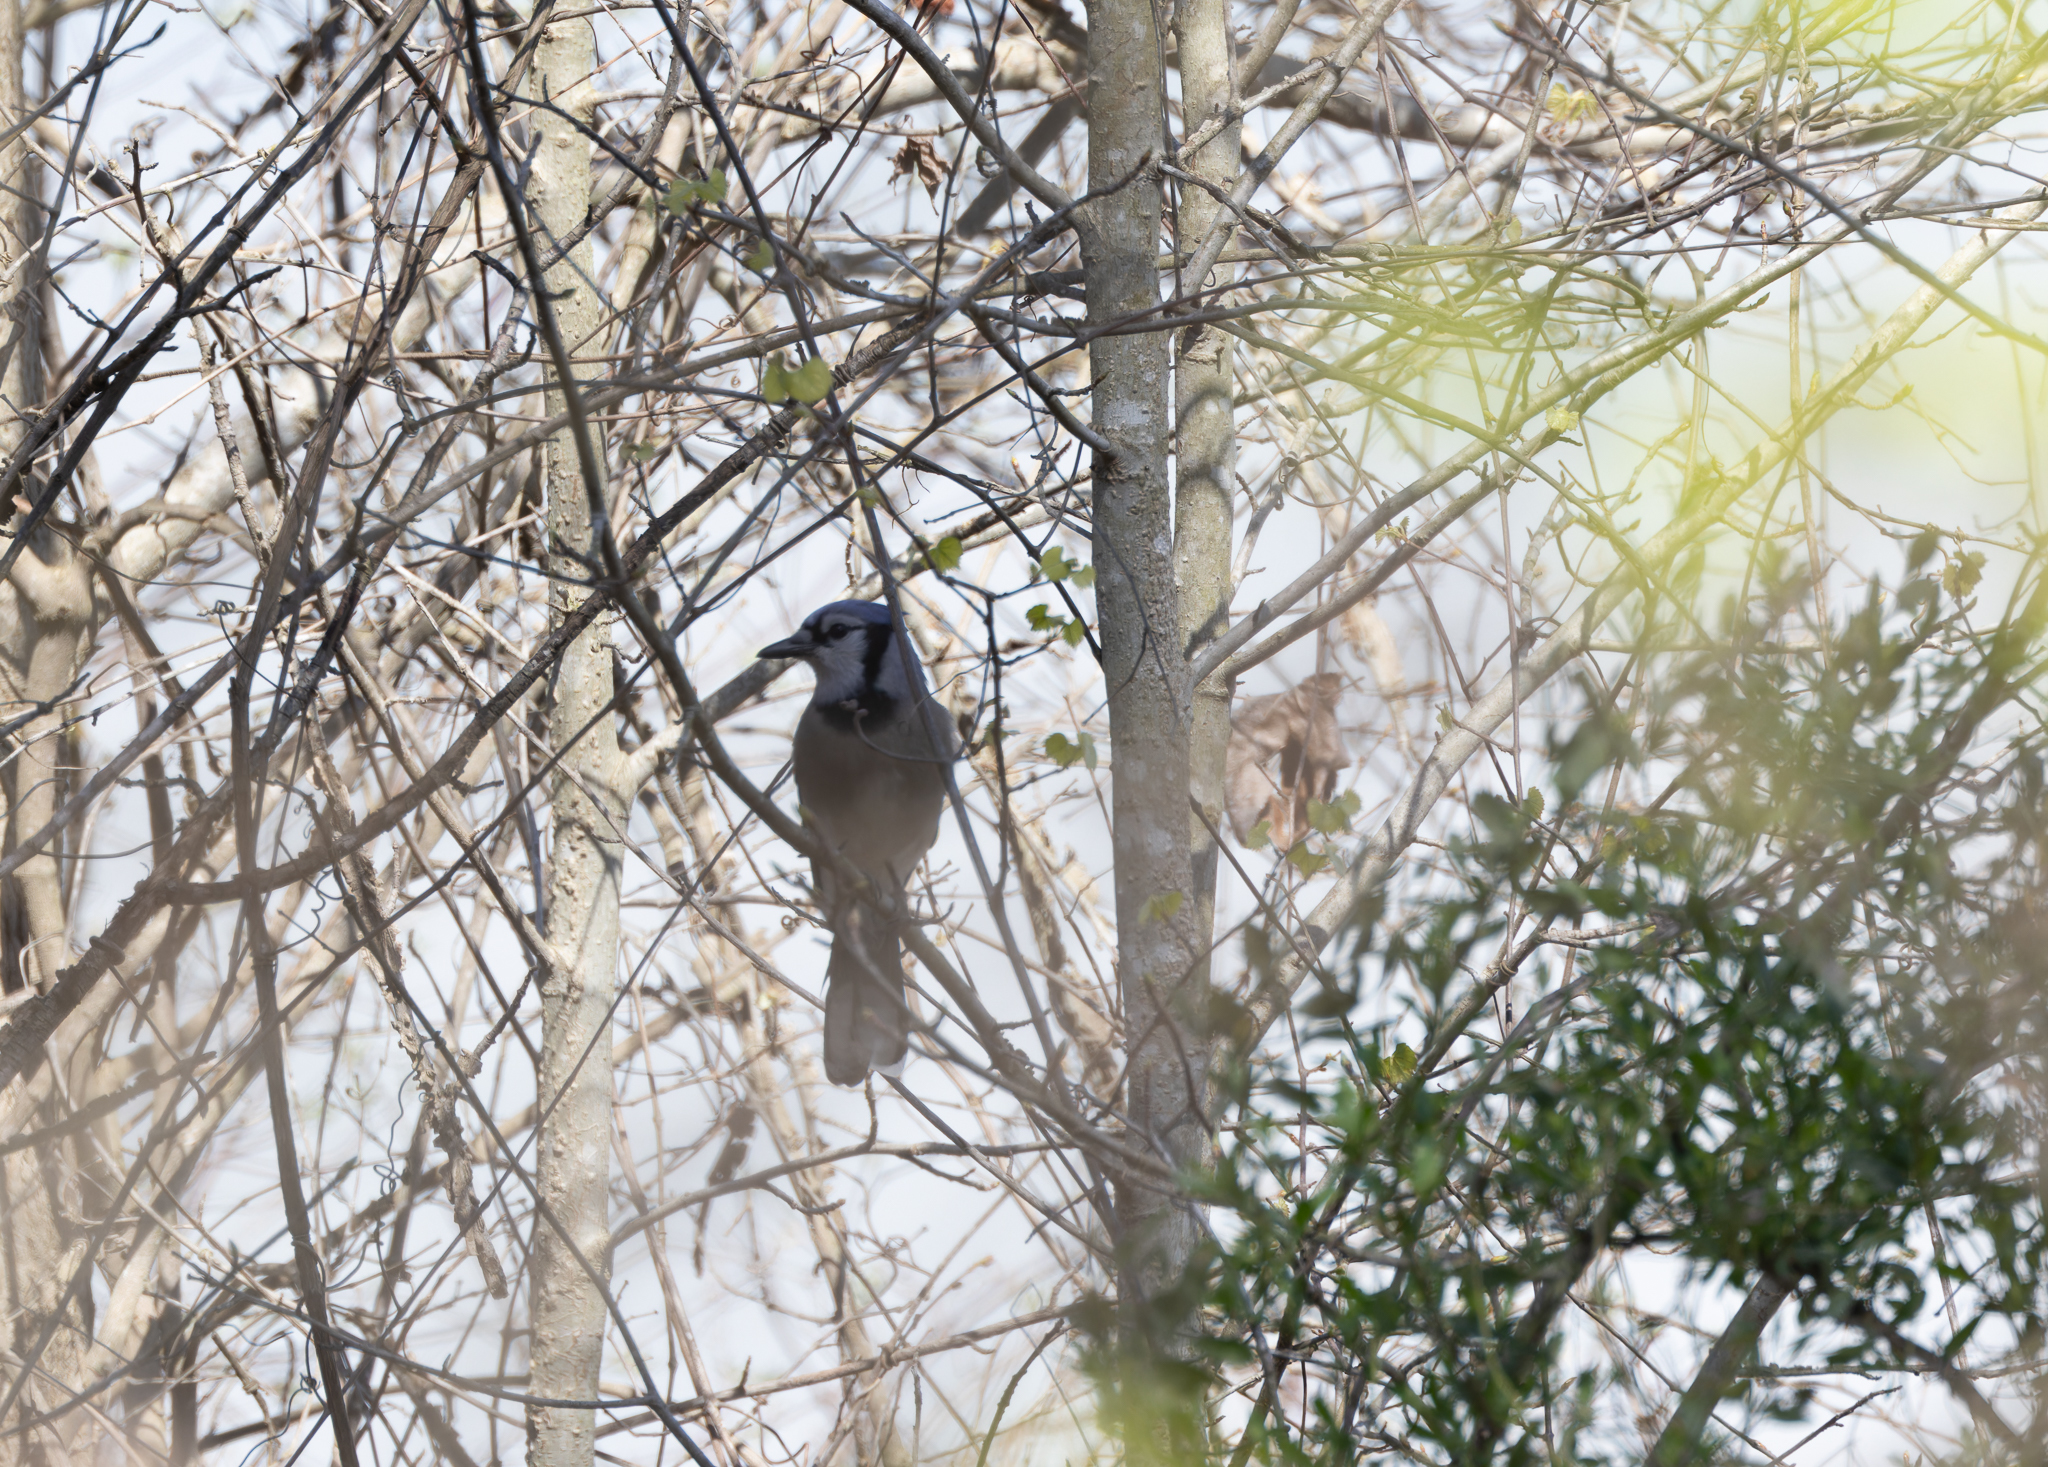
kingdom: Animalia
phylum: Chordata
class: Aves
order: Passeriformes
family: Corvidae
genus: Cyanocitta
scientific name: Cyanocitta cristata
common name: Blue jay
